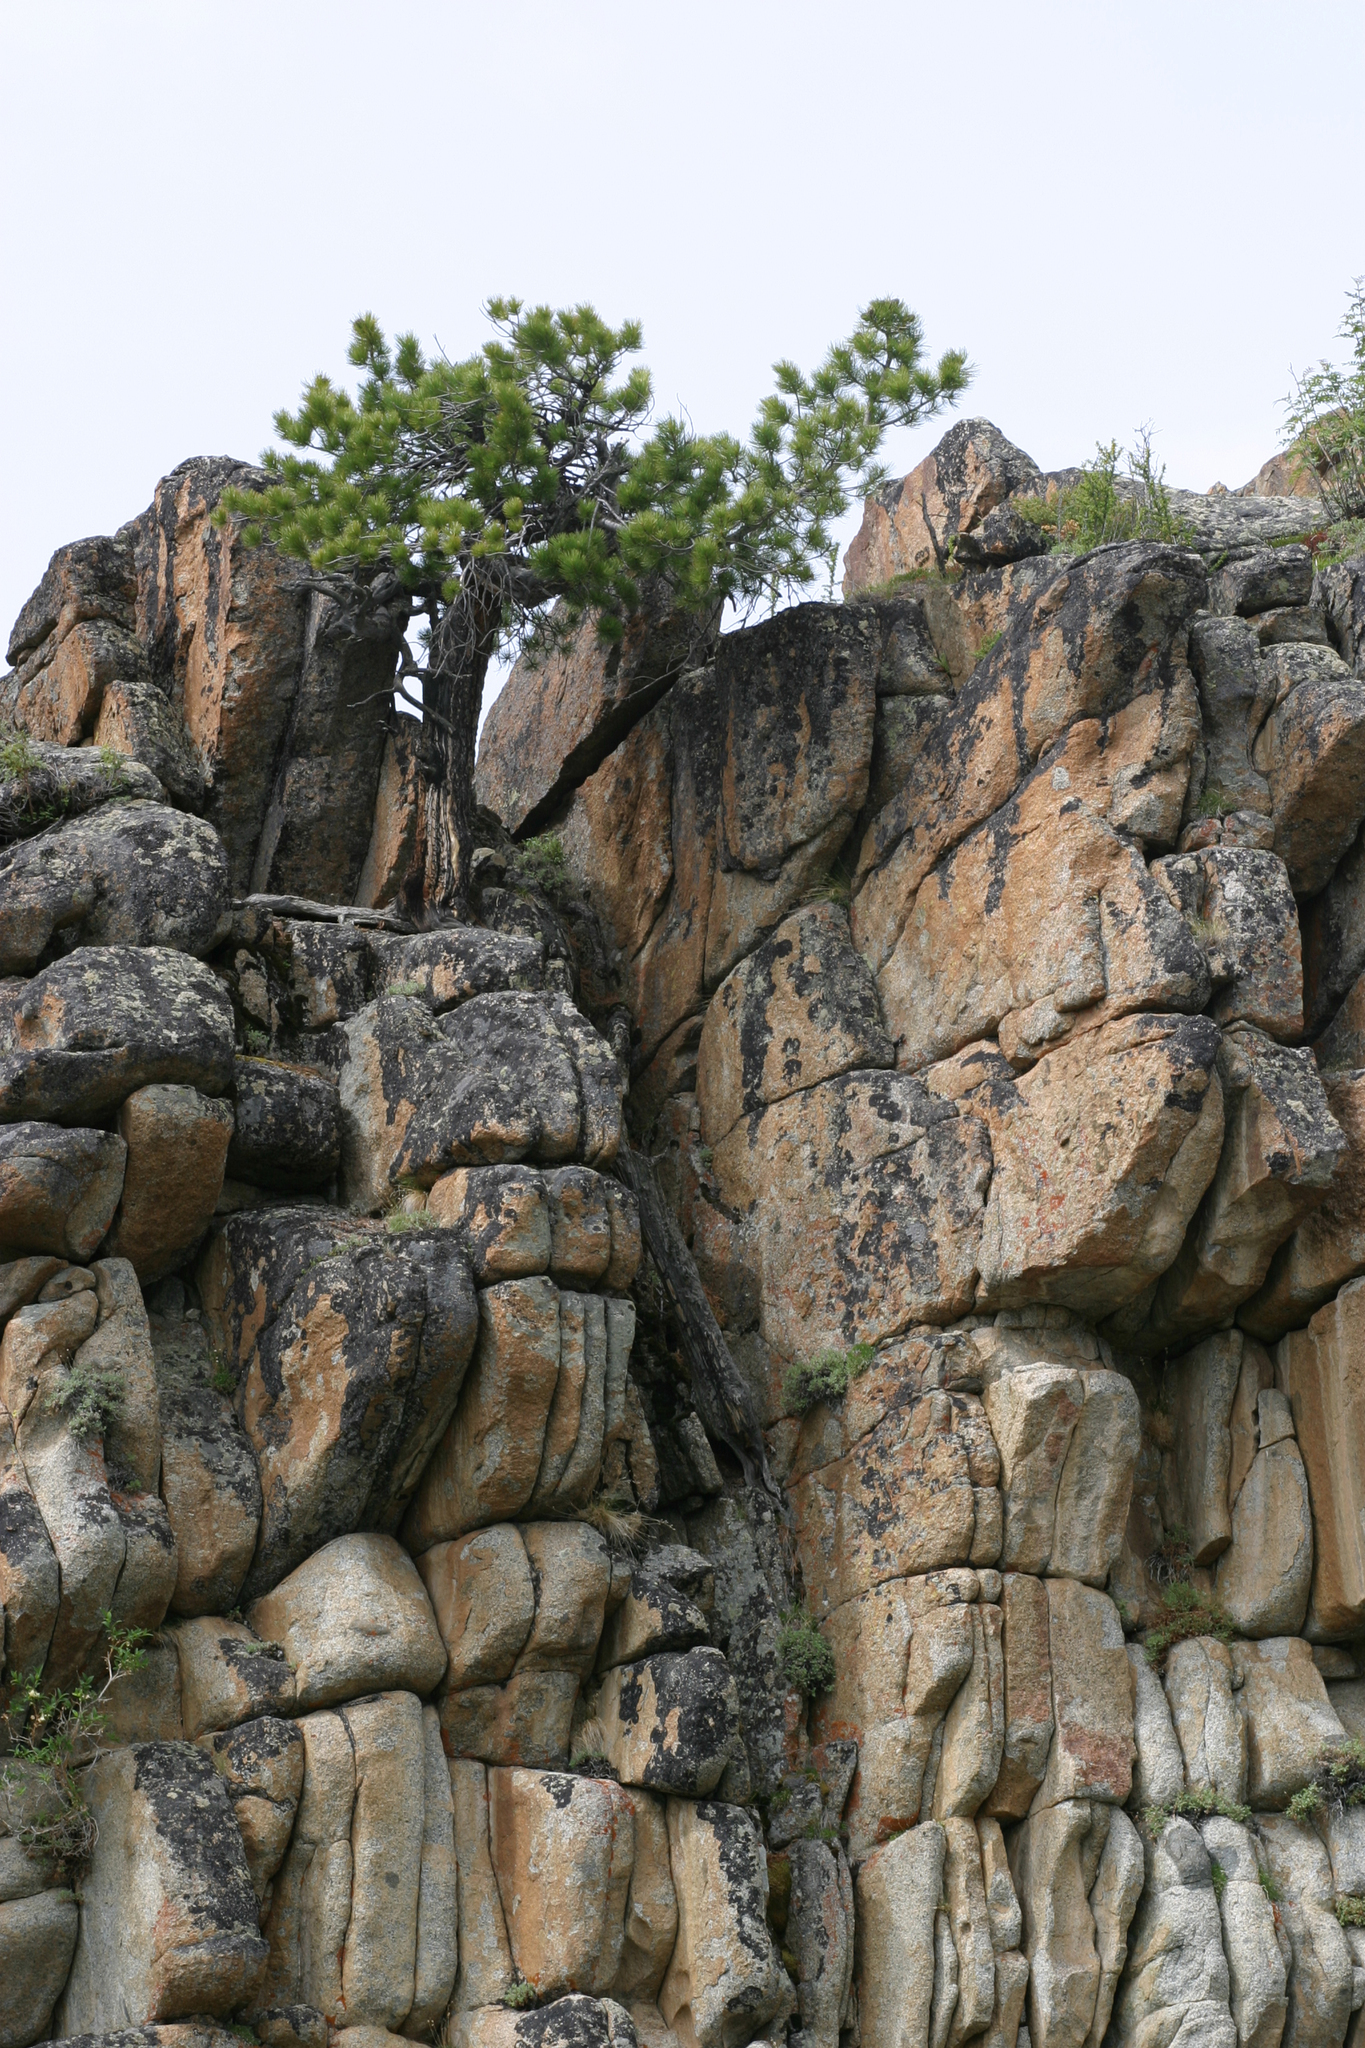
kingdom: Plantae
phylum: Tracheophyta
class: Pinopsida
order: Pinales
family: Pinaceae
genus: Pinus
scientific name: Pinus sibirica
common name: Siberian pine
